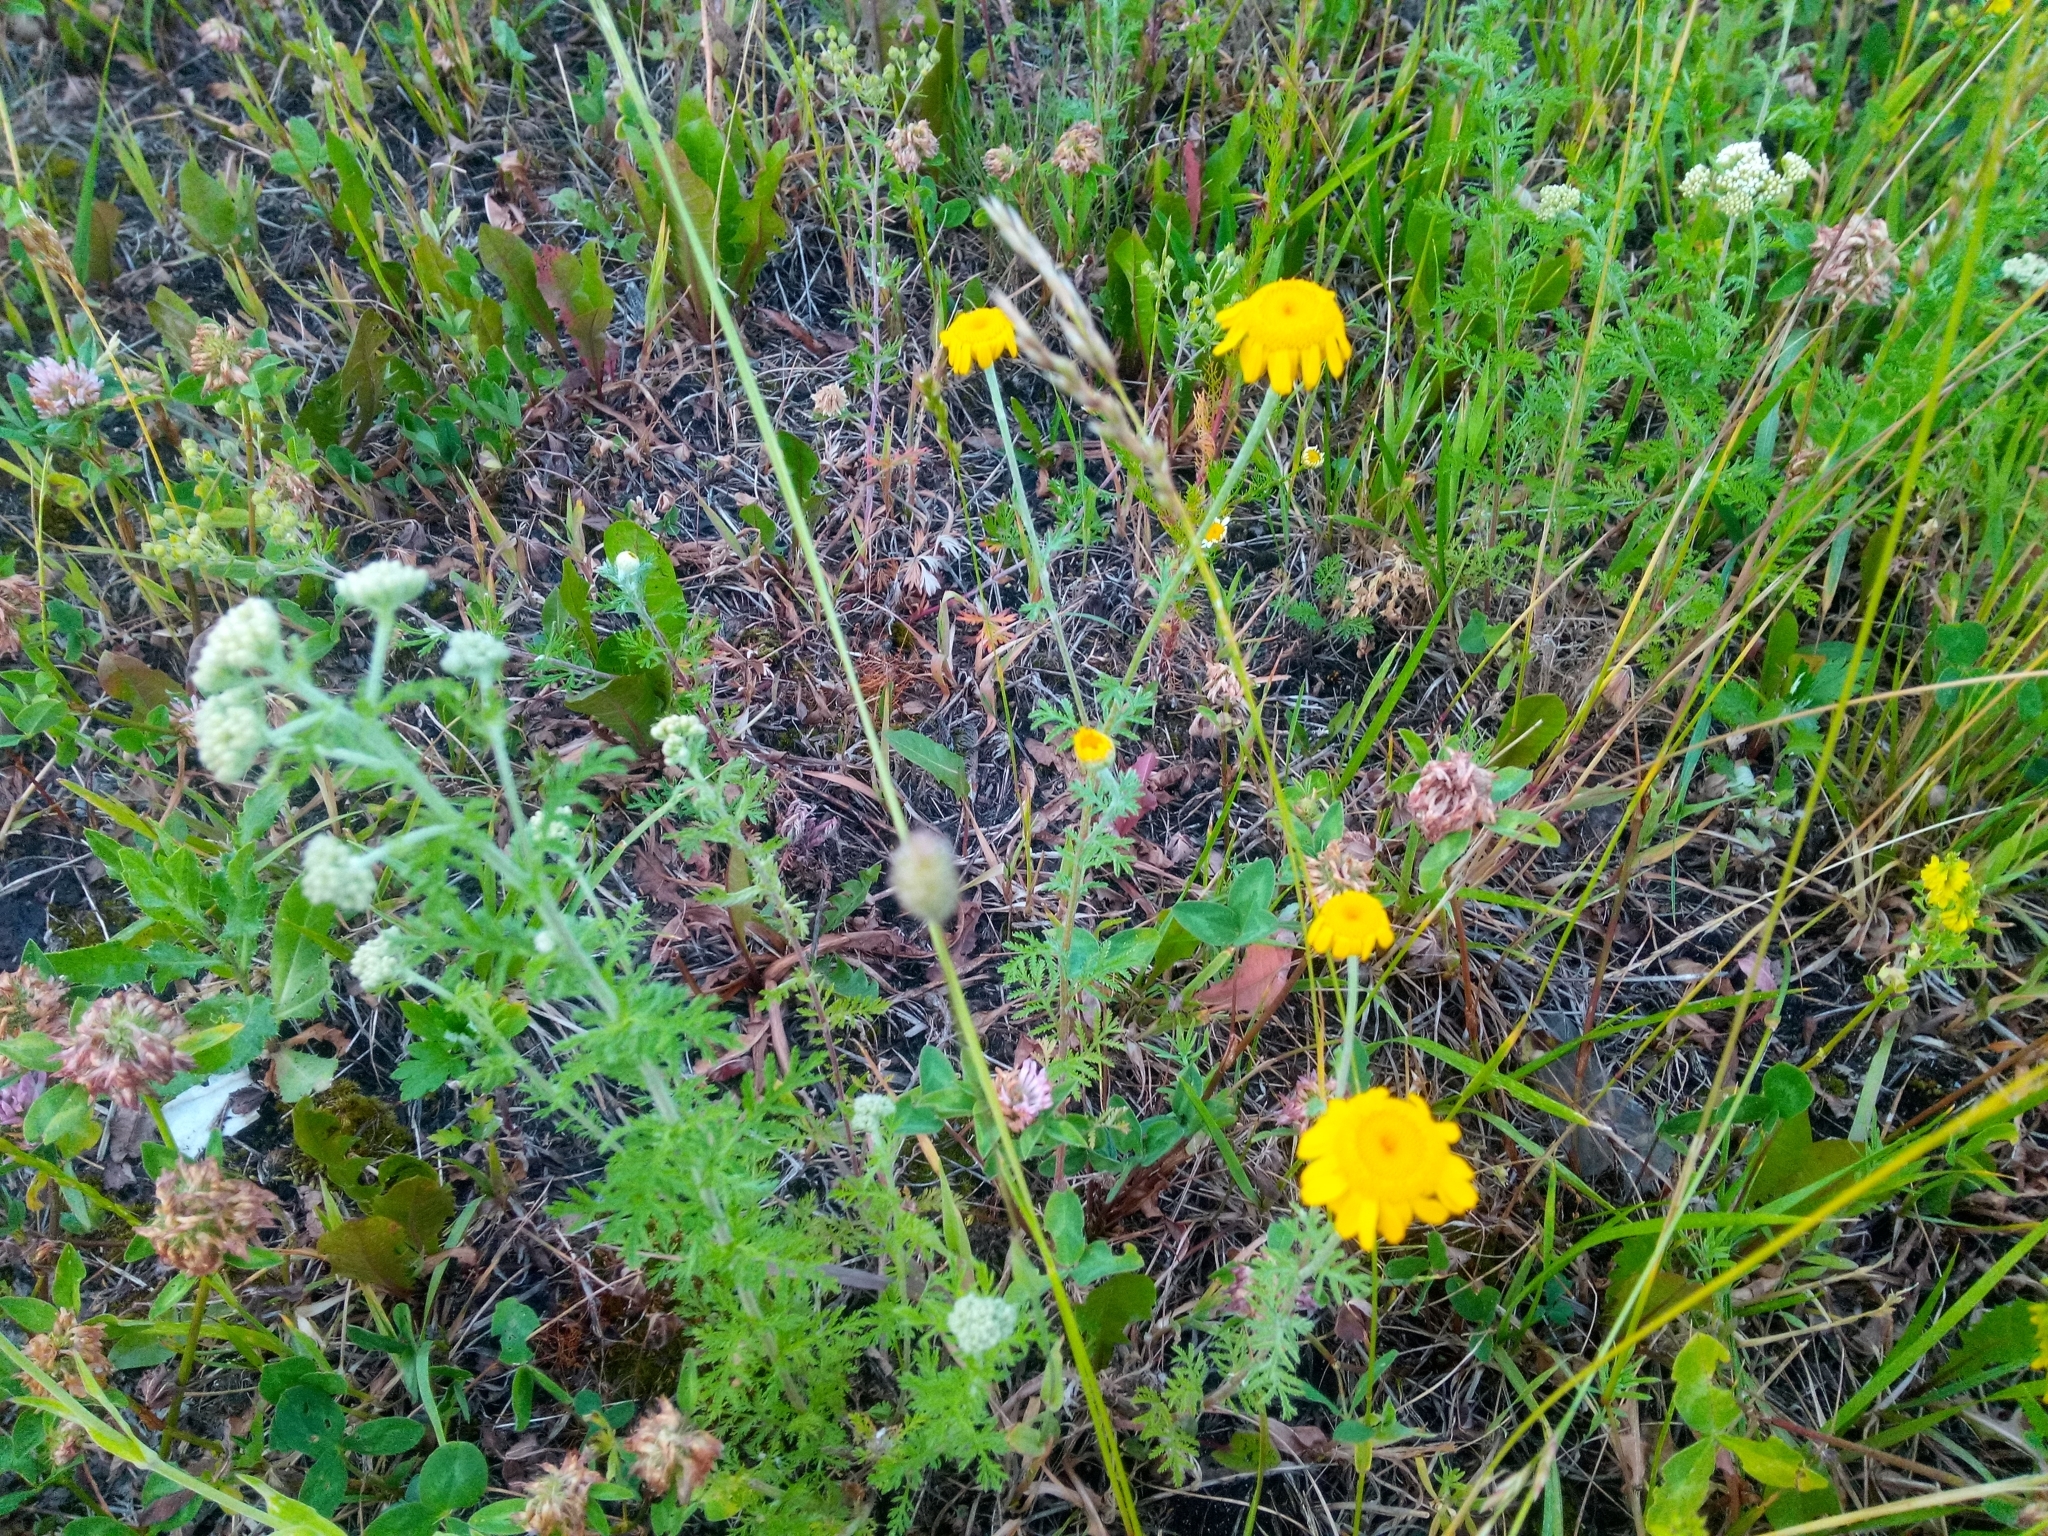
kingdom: Plantae
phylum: Tracheophyta
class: Magnoliopsida
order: Asterales
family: Asteraceae
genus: Cota
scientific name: Cota tinctoria
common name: Golden chamomile
